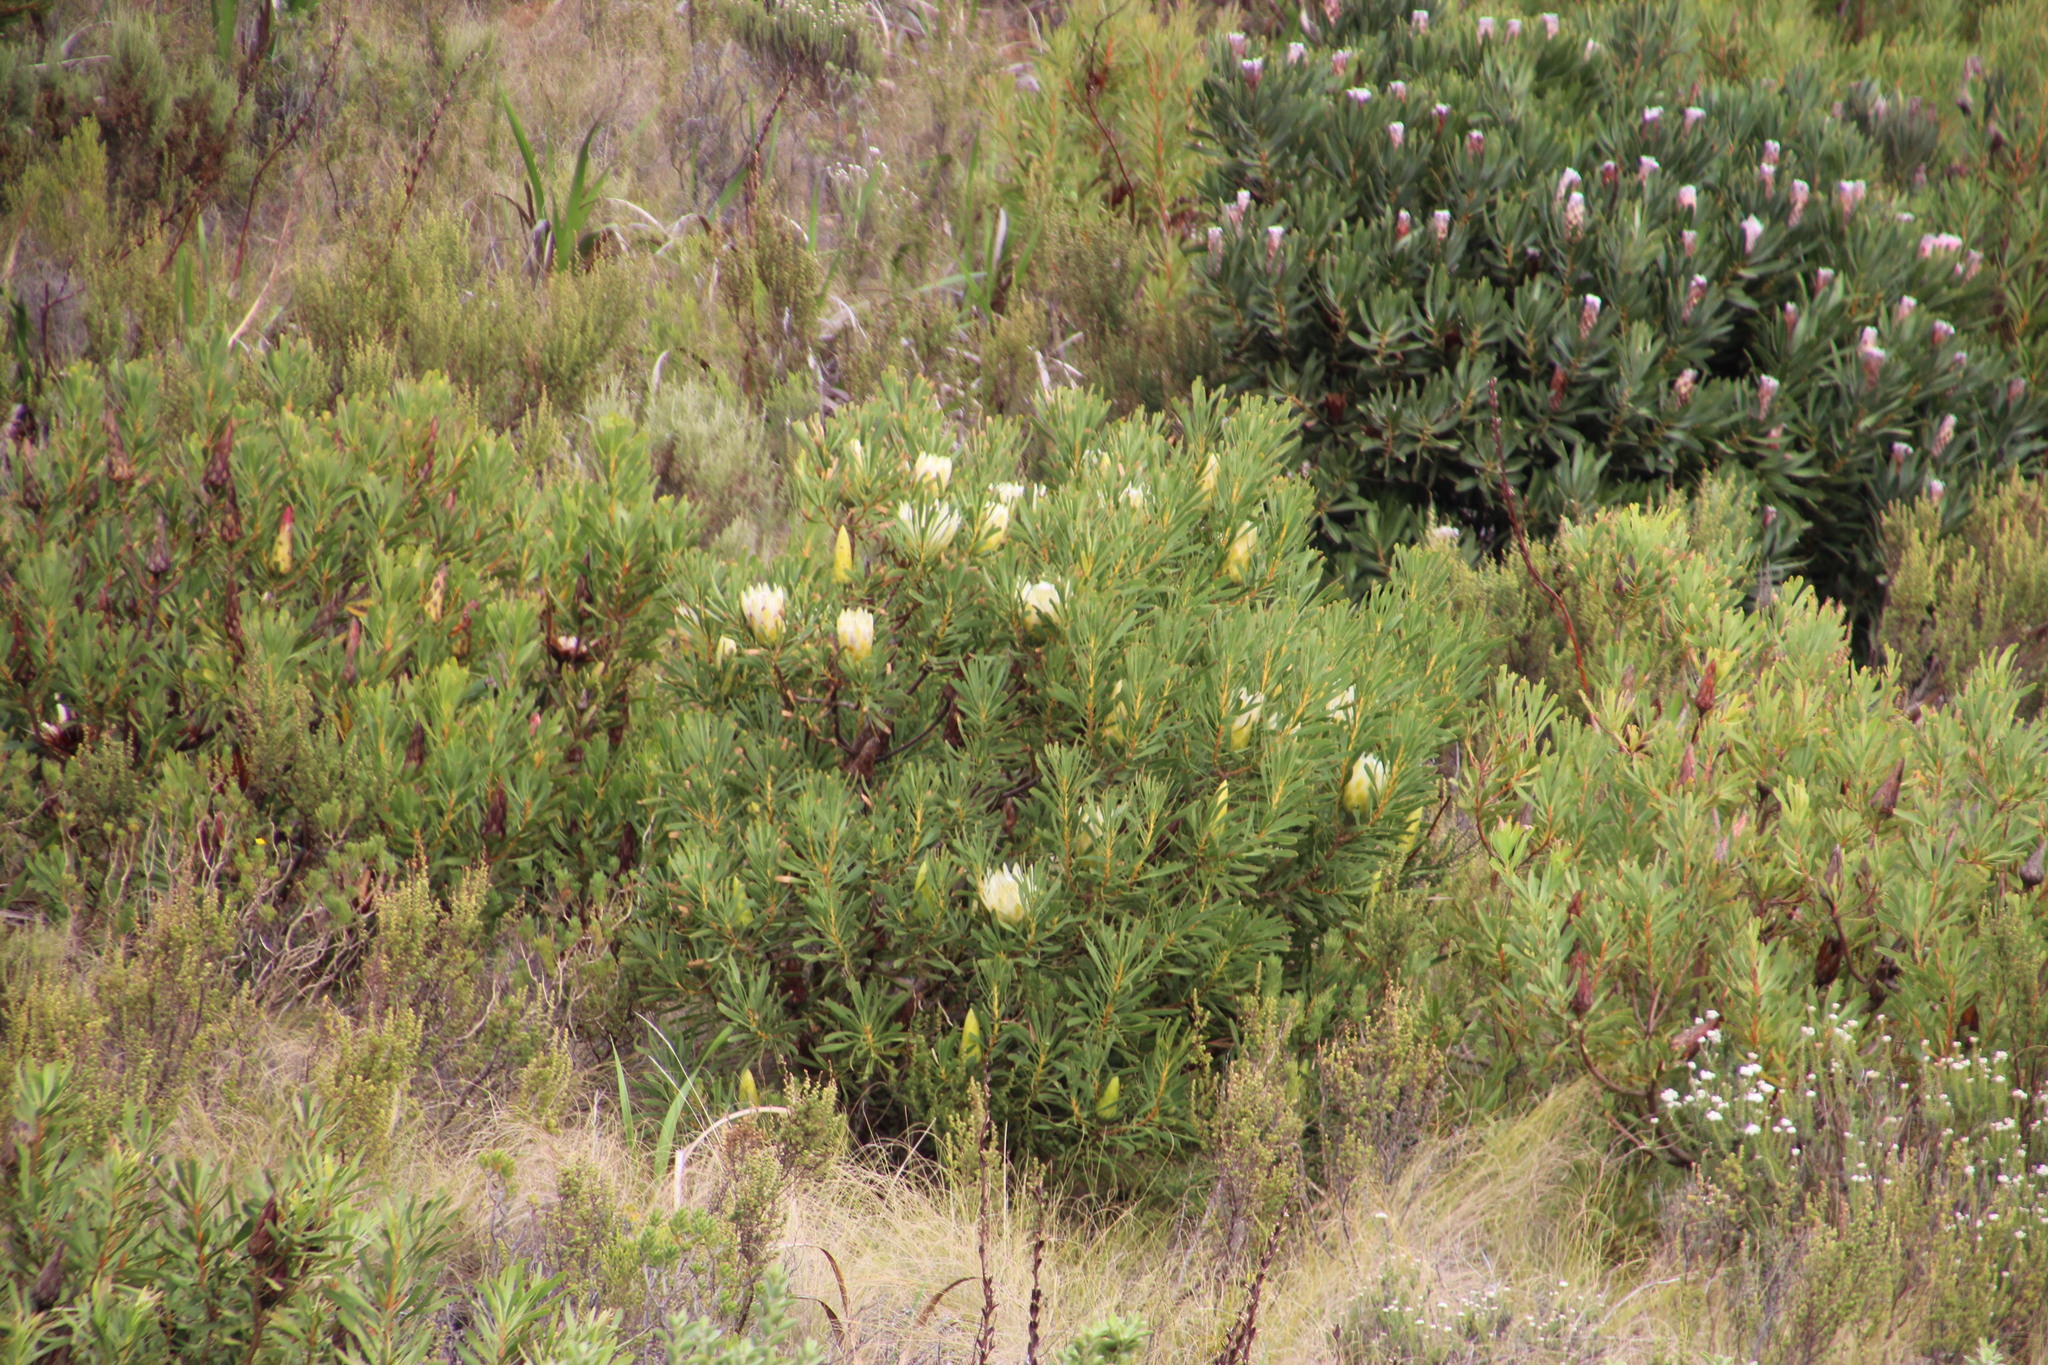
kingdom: Plantae
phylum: Tracheophyta
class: Magnoliopsida
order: Proteales
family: Proteaceae
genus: Protea
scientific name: Protea repens
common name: Sugarbush
